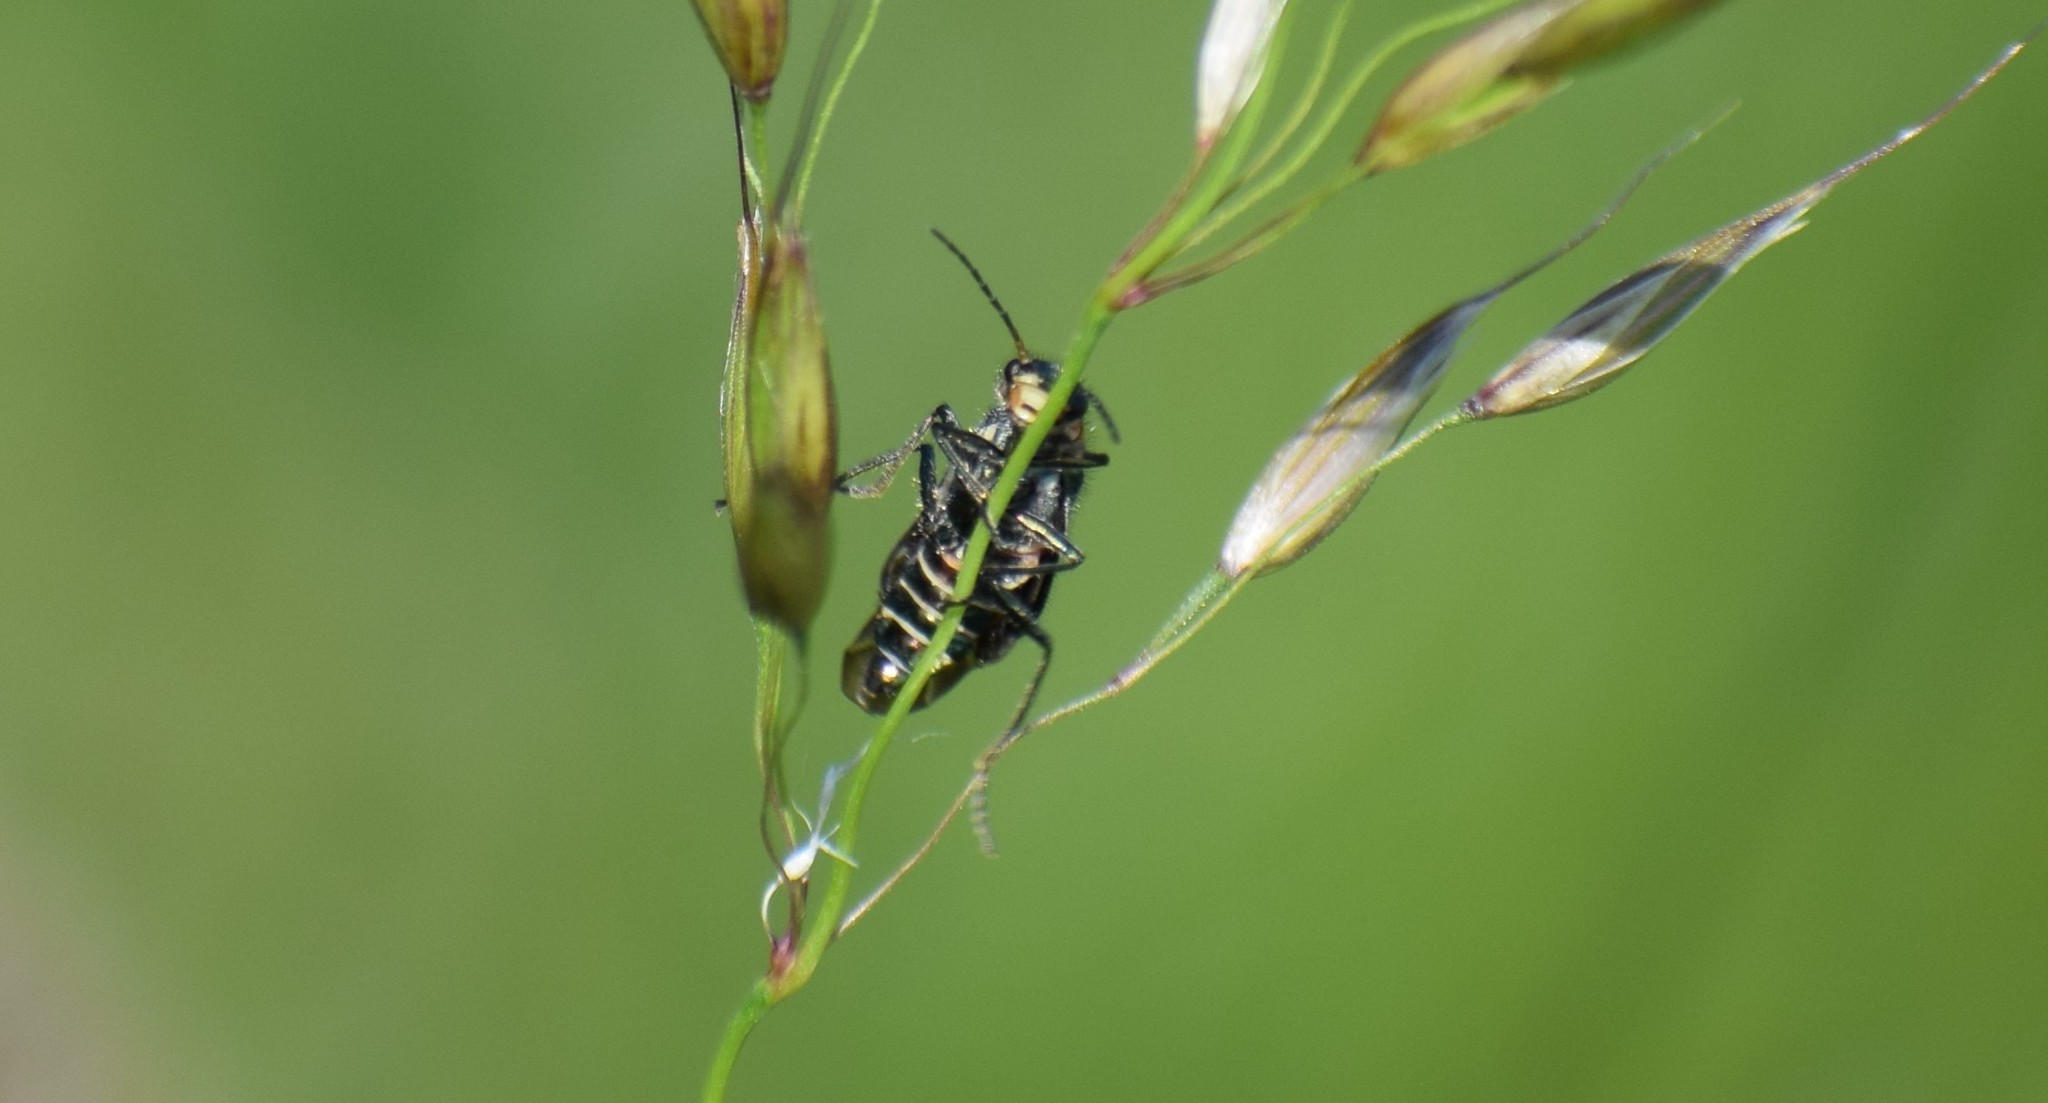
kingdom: Animalia
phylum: Arthropoda
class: Insecta
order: Coleoptera
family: Melyridae
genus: Malachius
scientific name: Malachius bipustulatus
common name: Malachite beetle
